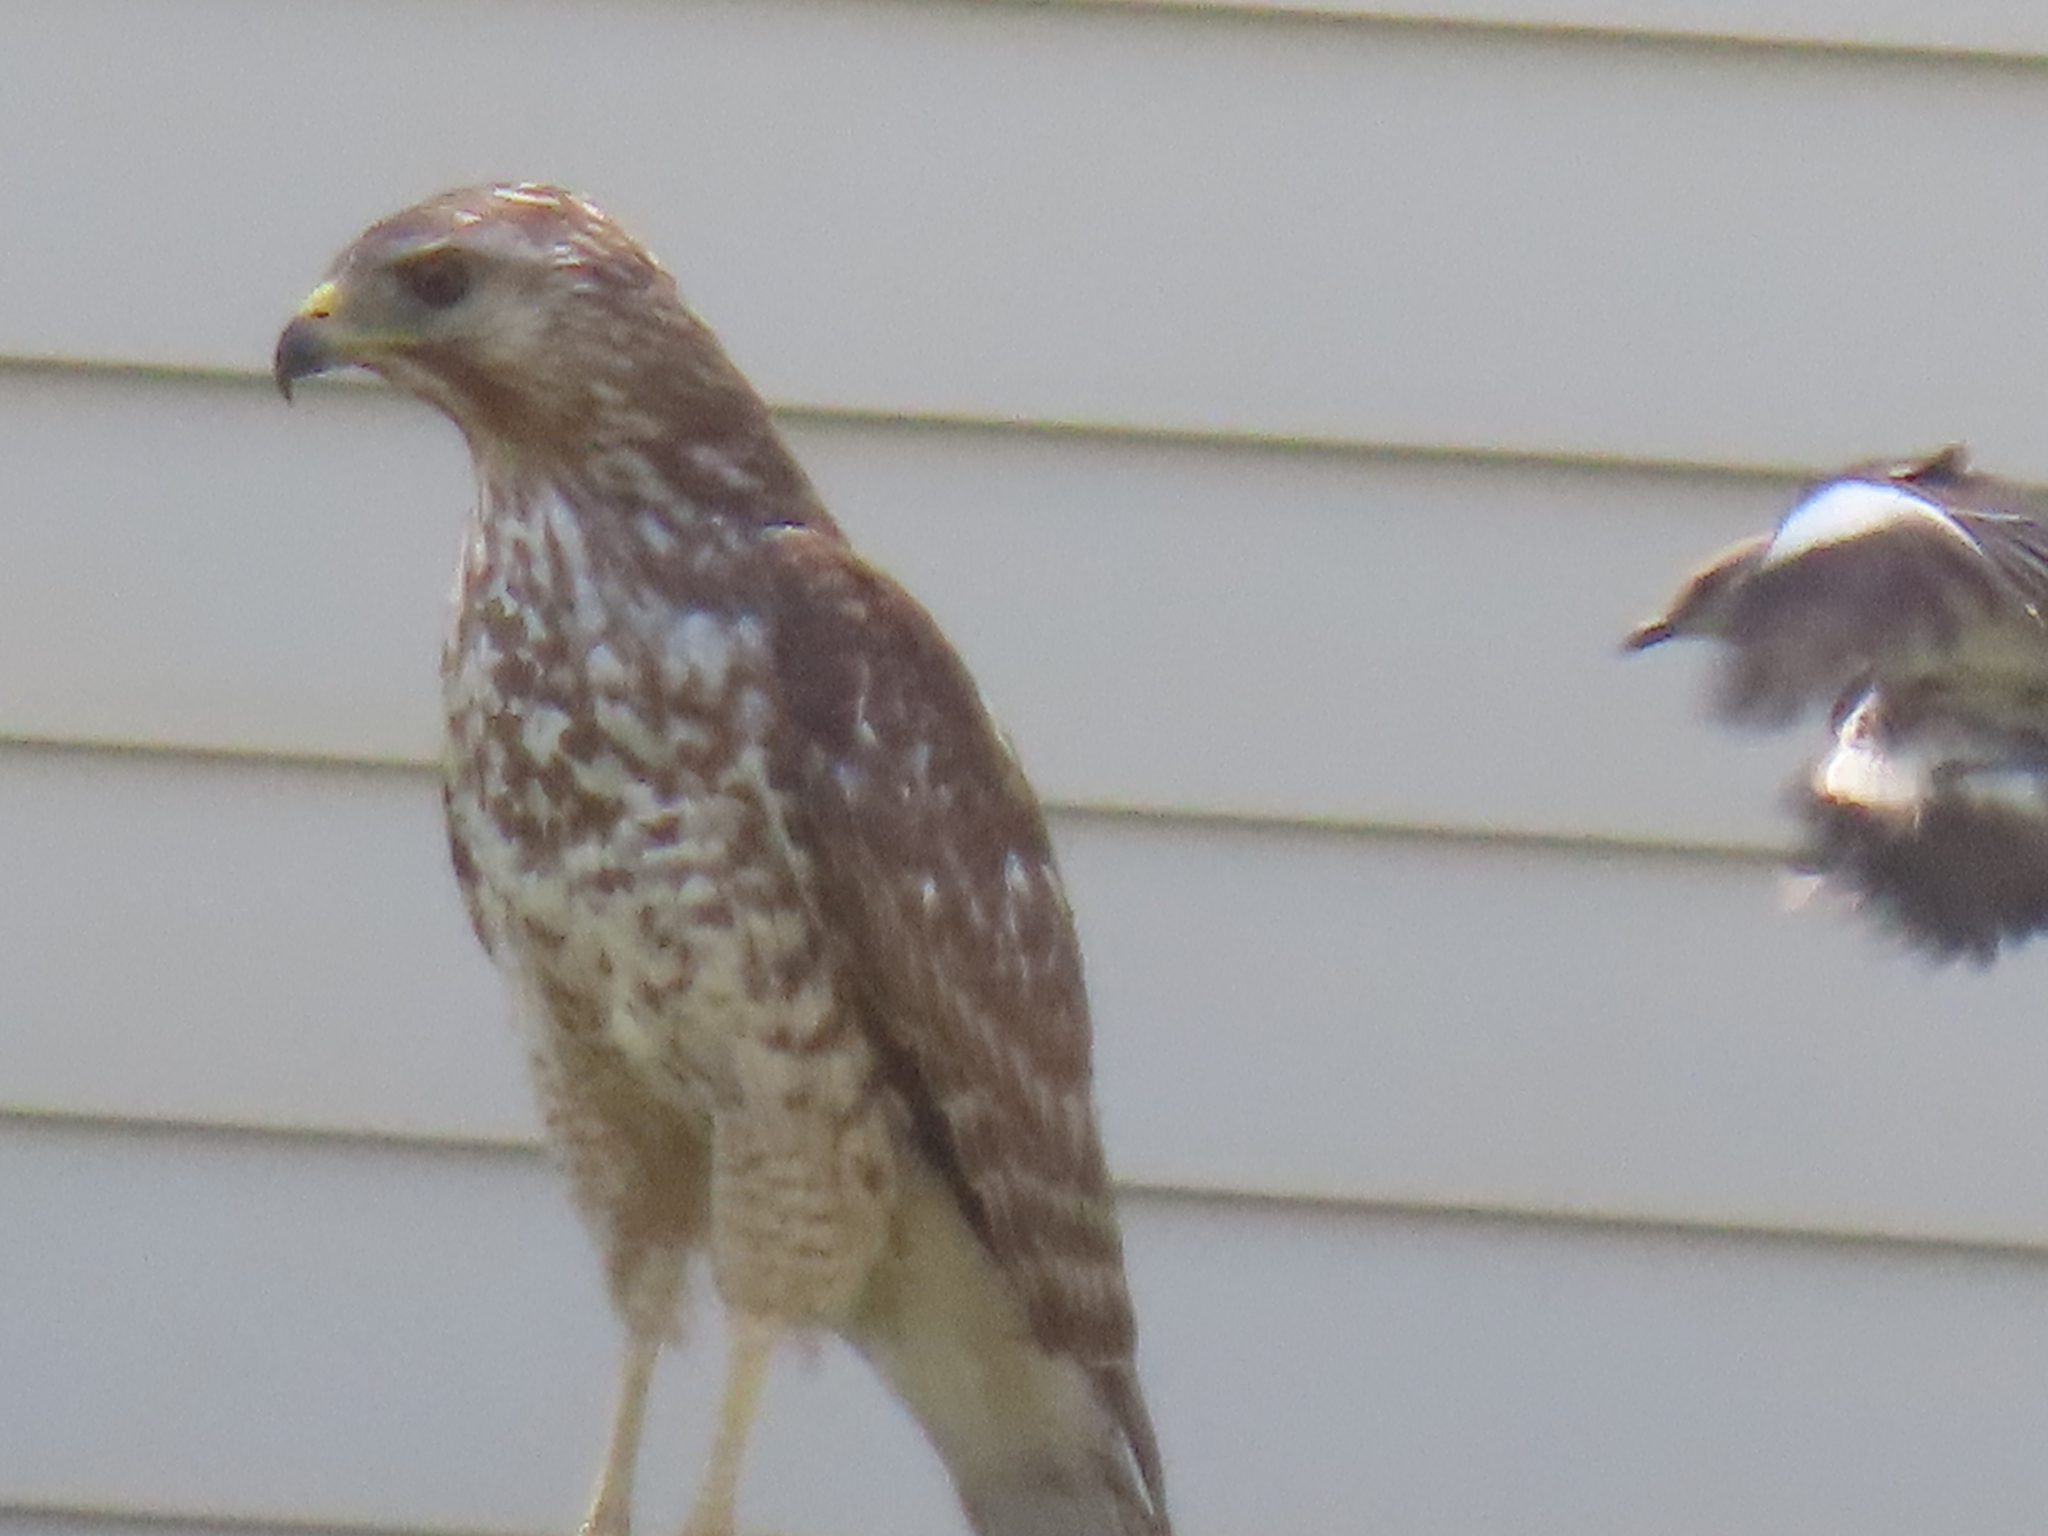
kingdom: Animalia
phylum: Chordata
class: Aves
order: Accipitriformes
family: Accipitridae
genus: Buteo
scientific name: Buteo lineatus
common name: Red-shouldered hawk
